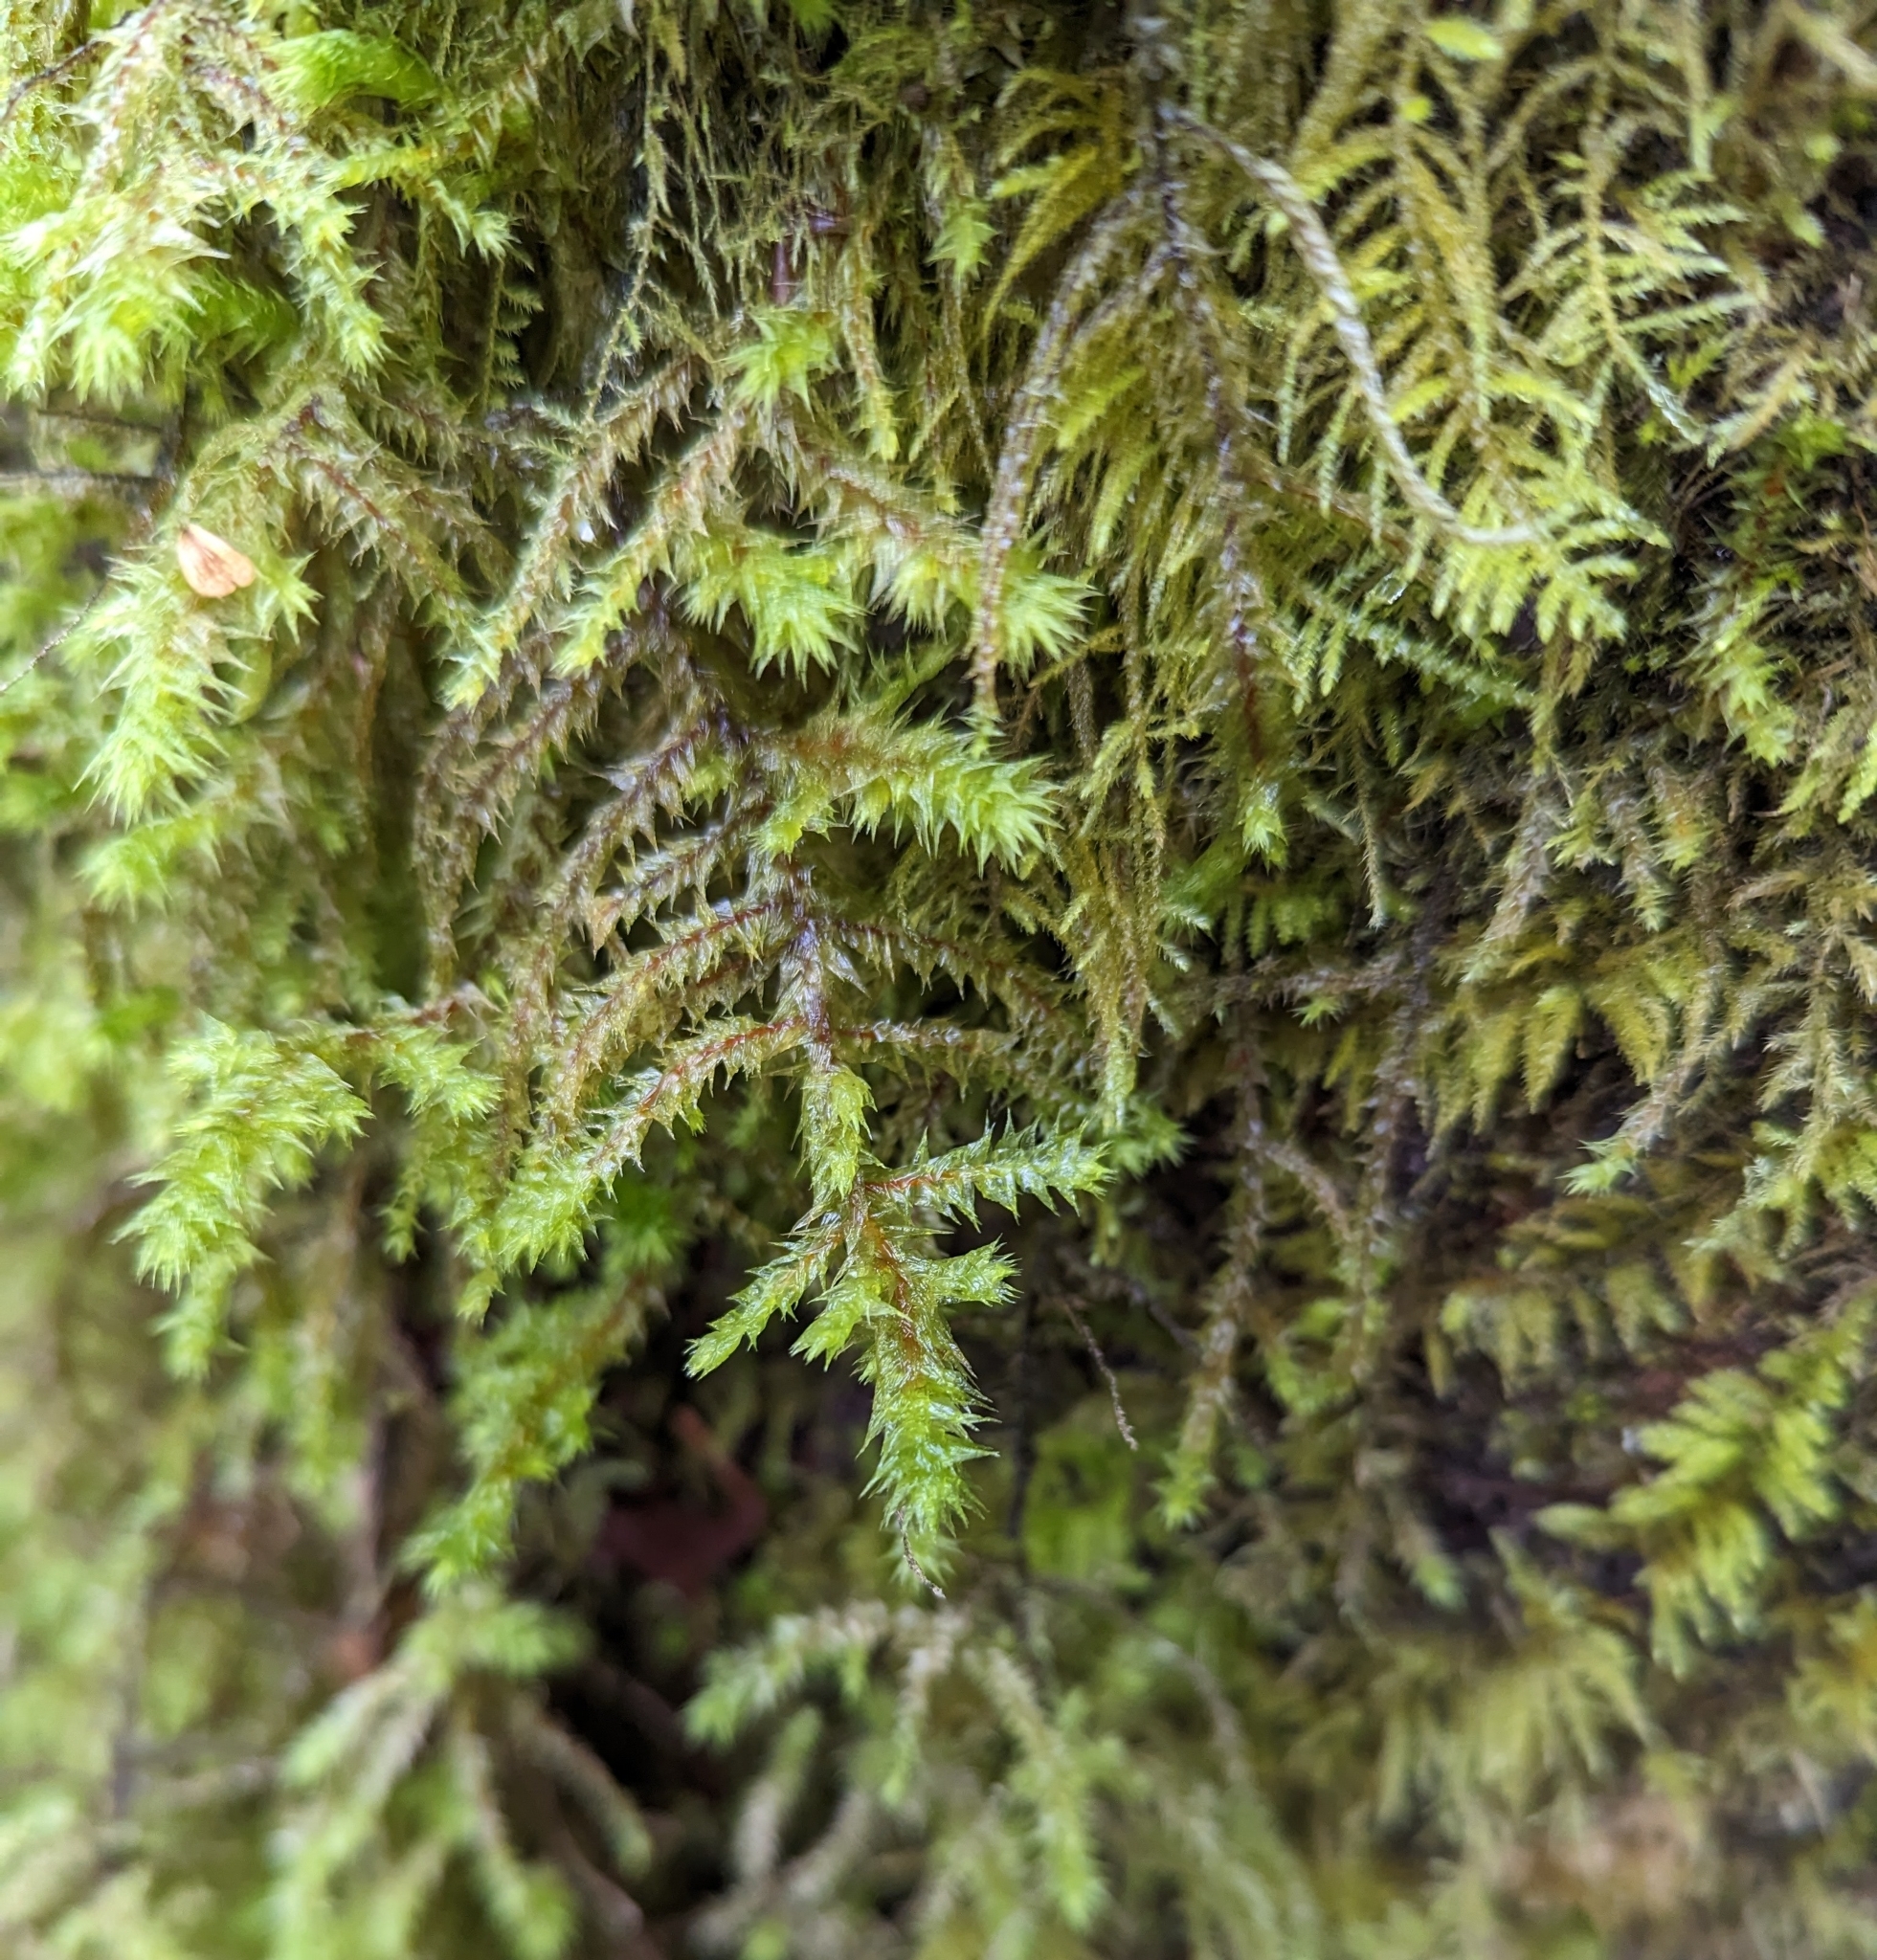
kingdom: Plantae
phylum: Bryophyta
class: Bryopsida
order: Hypnales
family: Hylocomiaceae
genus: Hylocomiadelphus
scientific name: Hylocomiadelphus triquetrus
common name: Rough goose neck moss
